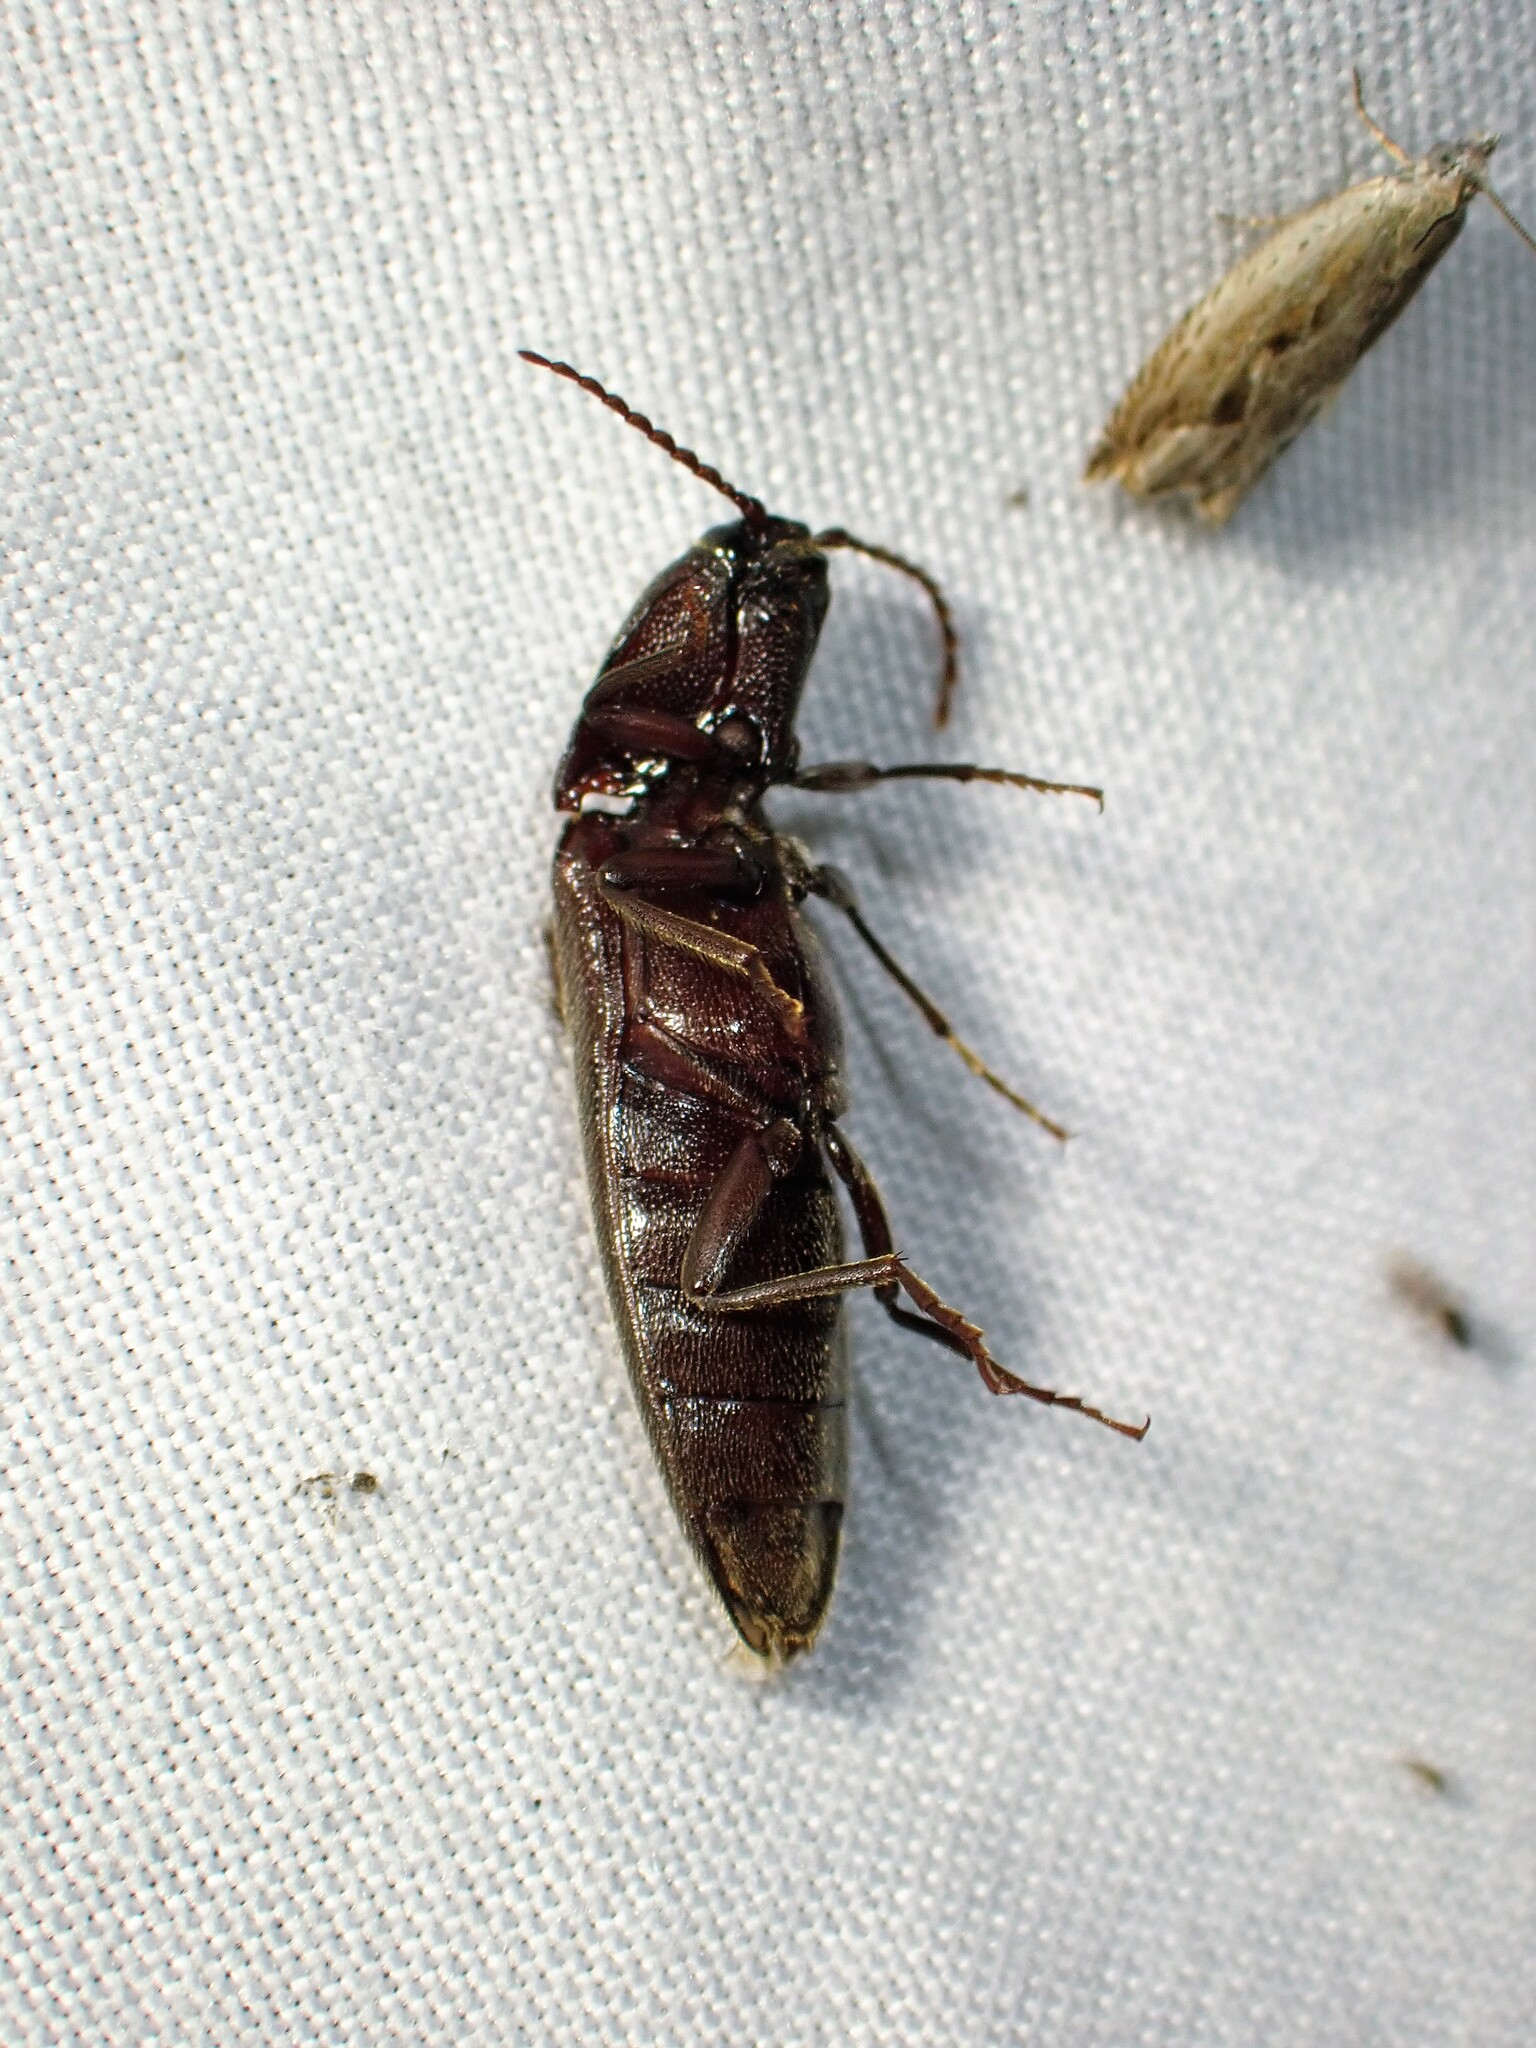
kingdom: Animalia
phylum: Arthropoda
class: Insecta
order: Coleoptera
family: Elateridae
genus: Melanotus
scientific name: Melanotus castanipes
